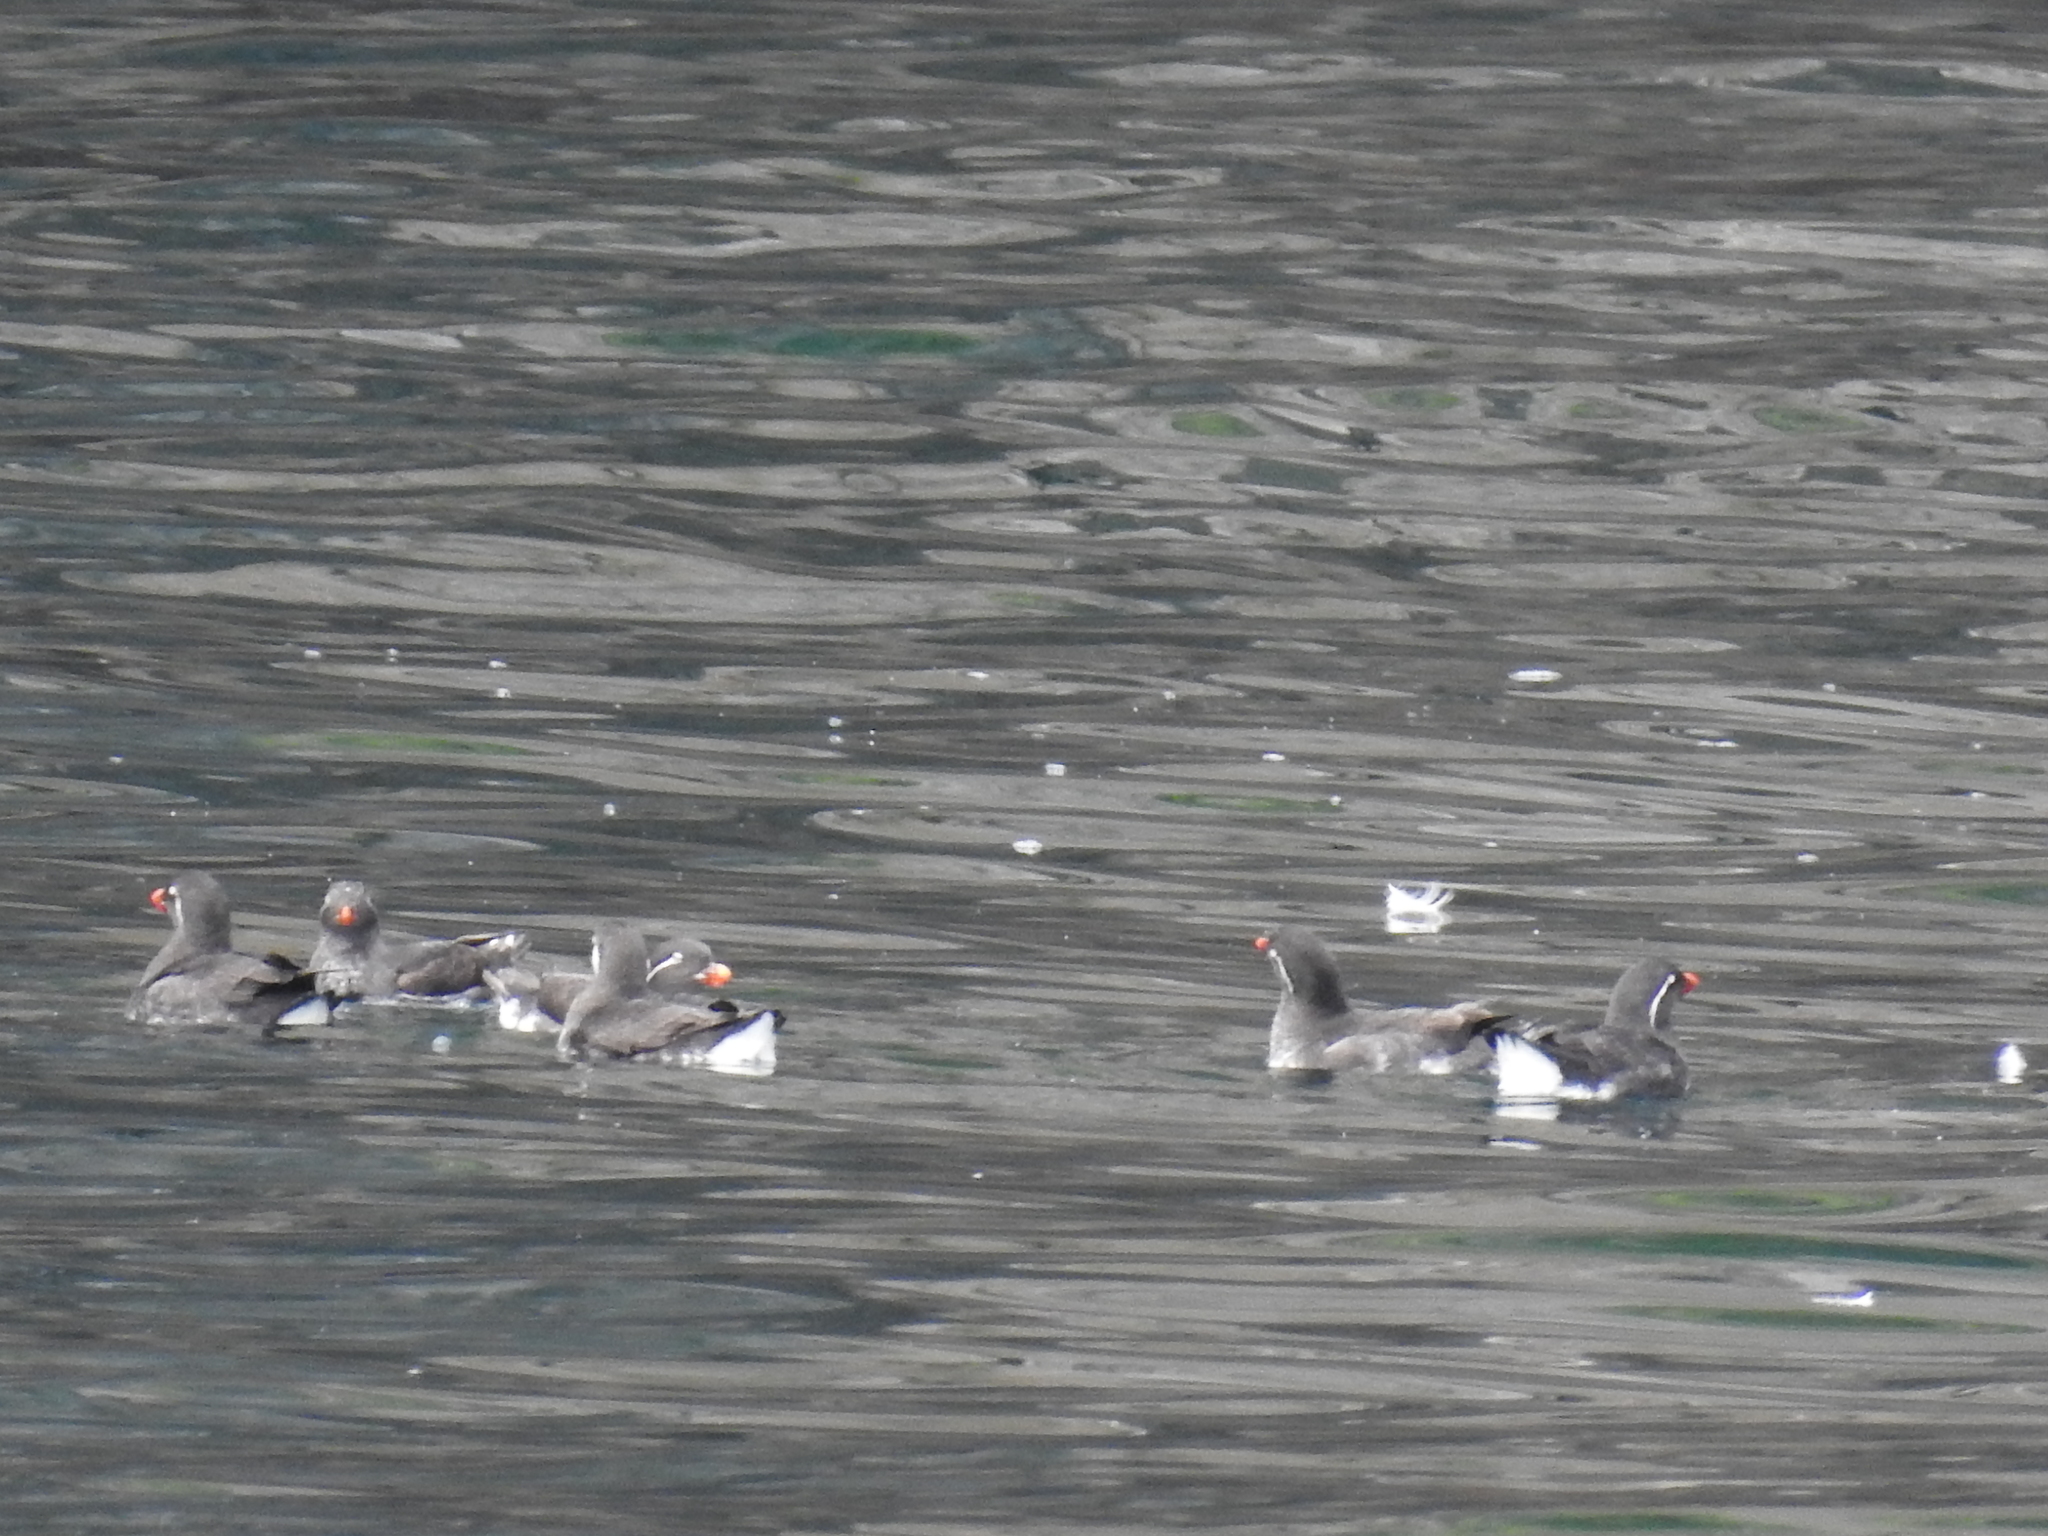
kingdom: Animalia
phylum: Chordata
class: Aves
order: Charadriiformes
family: Alcidae
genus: Aethia
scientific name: Aethia psittacula
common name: Parakeet auklet
